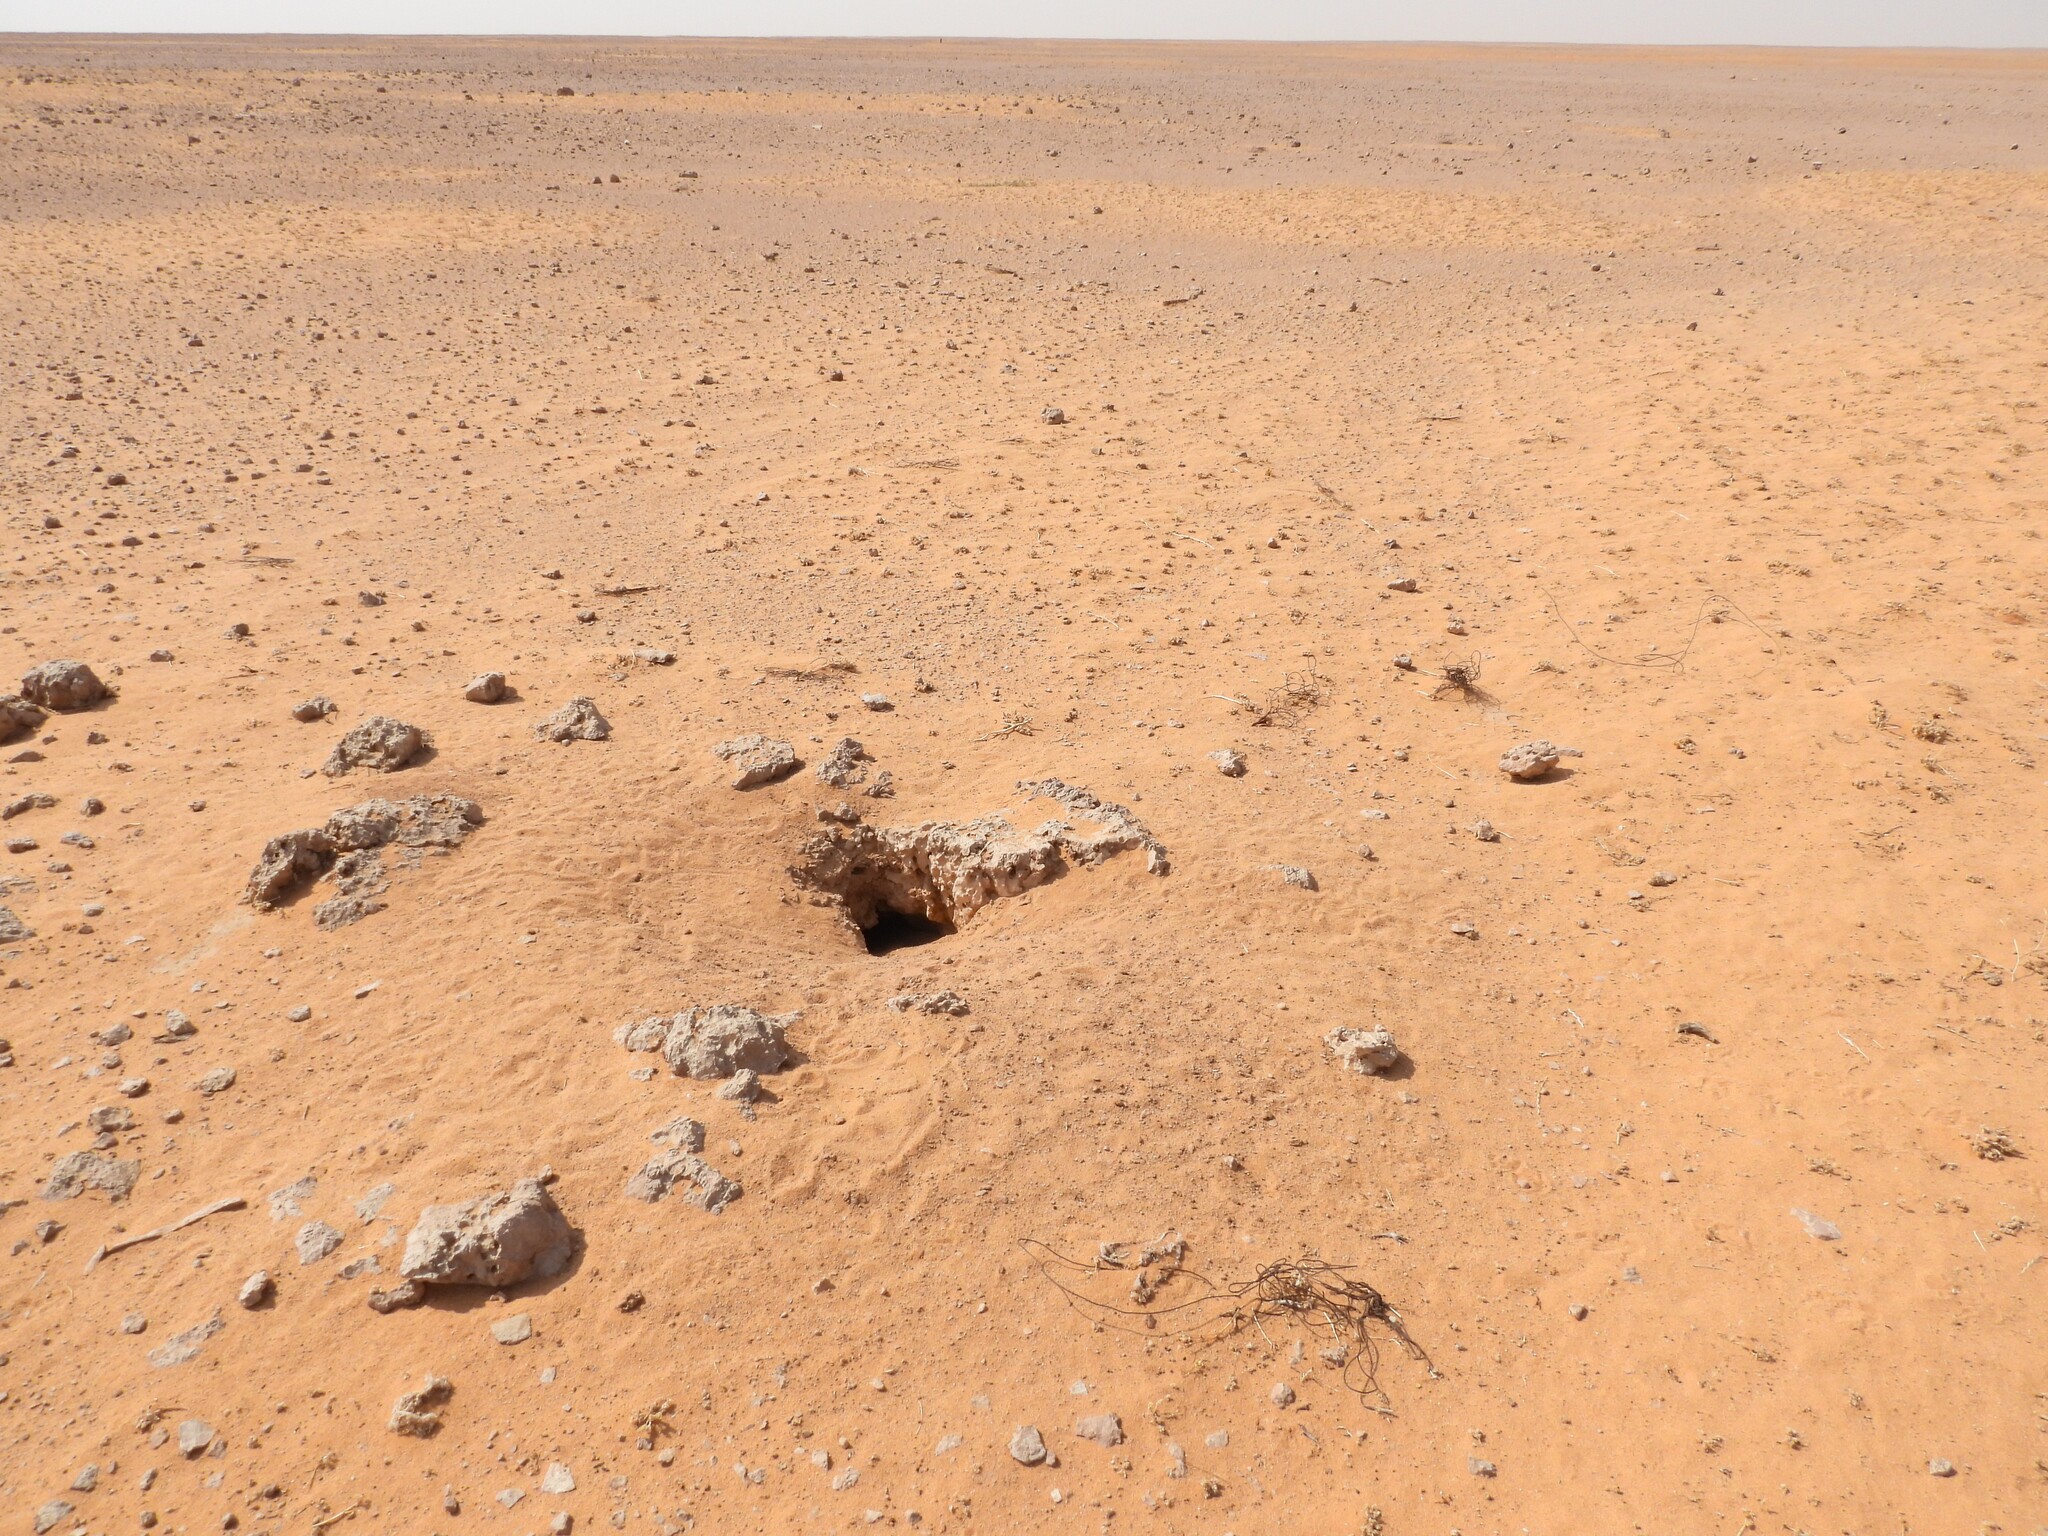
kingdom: Animalia
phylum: Chordata
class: Squamata
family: Agamidae
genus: Uromastyx
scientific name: Uromastyx aegyptia
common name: Egyptian mastigure
